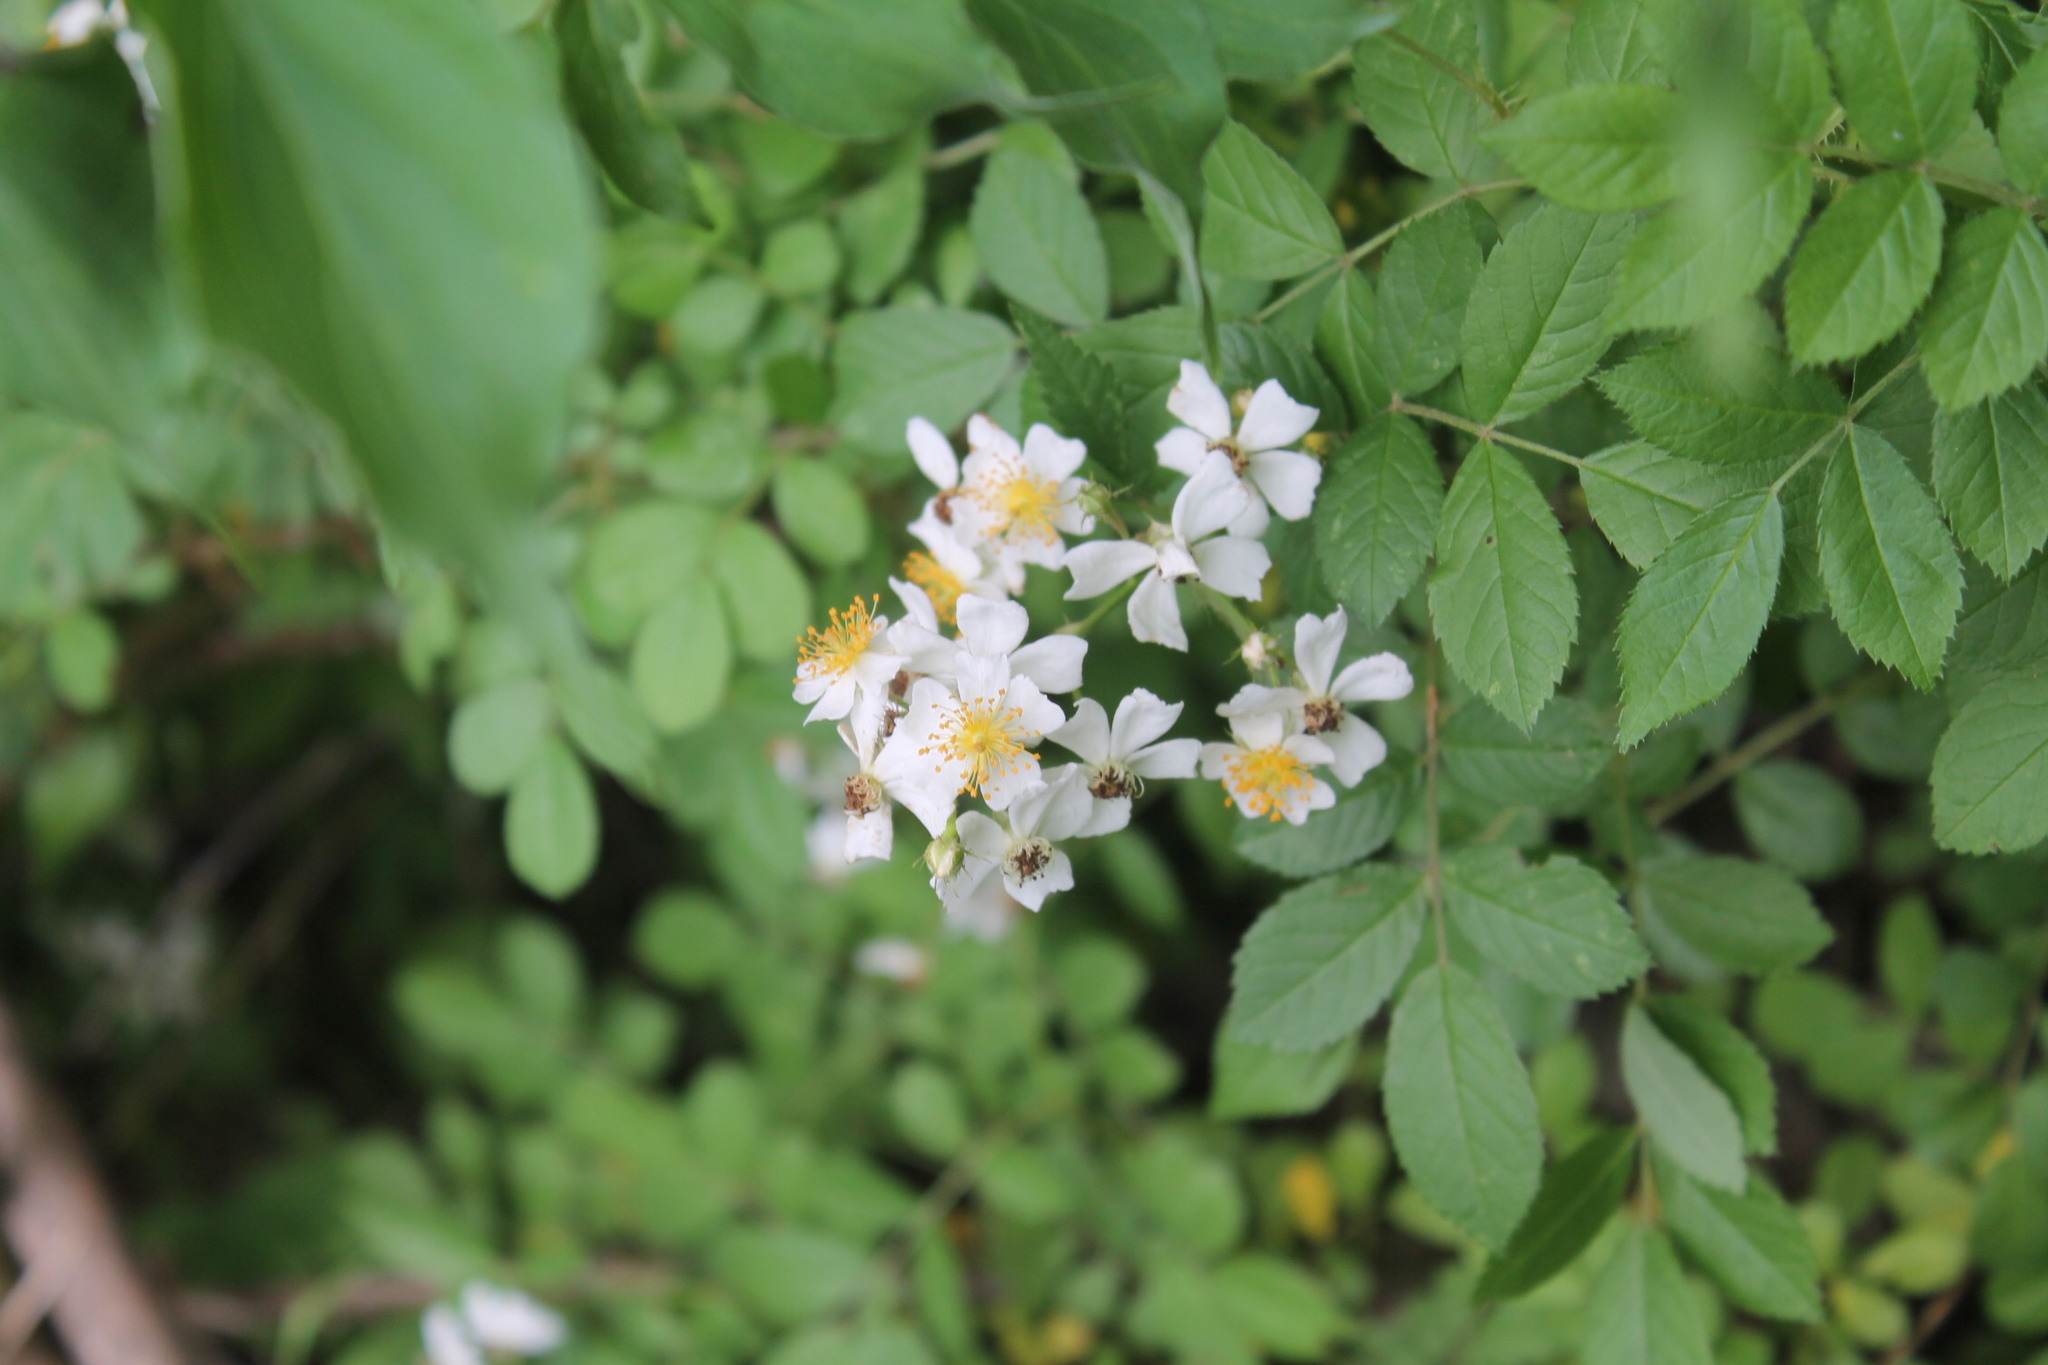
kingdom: Plantae
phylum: Tracheophyta
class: Magnoliopsida
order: Rosales
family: Rosaceae
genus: Rosa
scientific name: Rosa multiflora
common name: Multiflora rose
